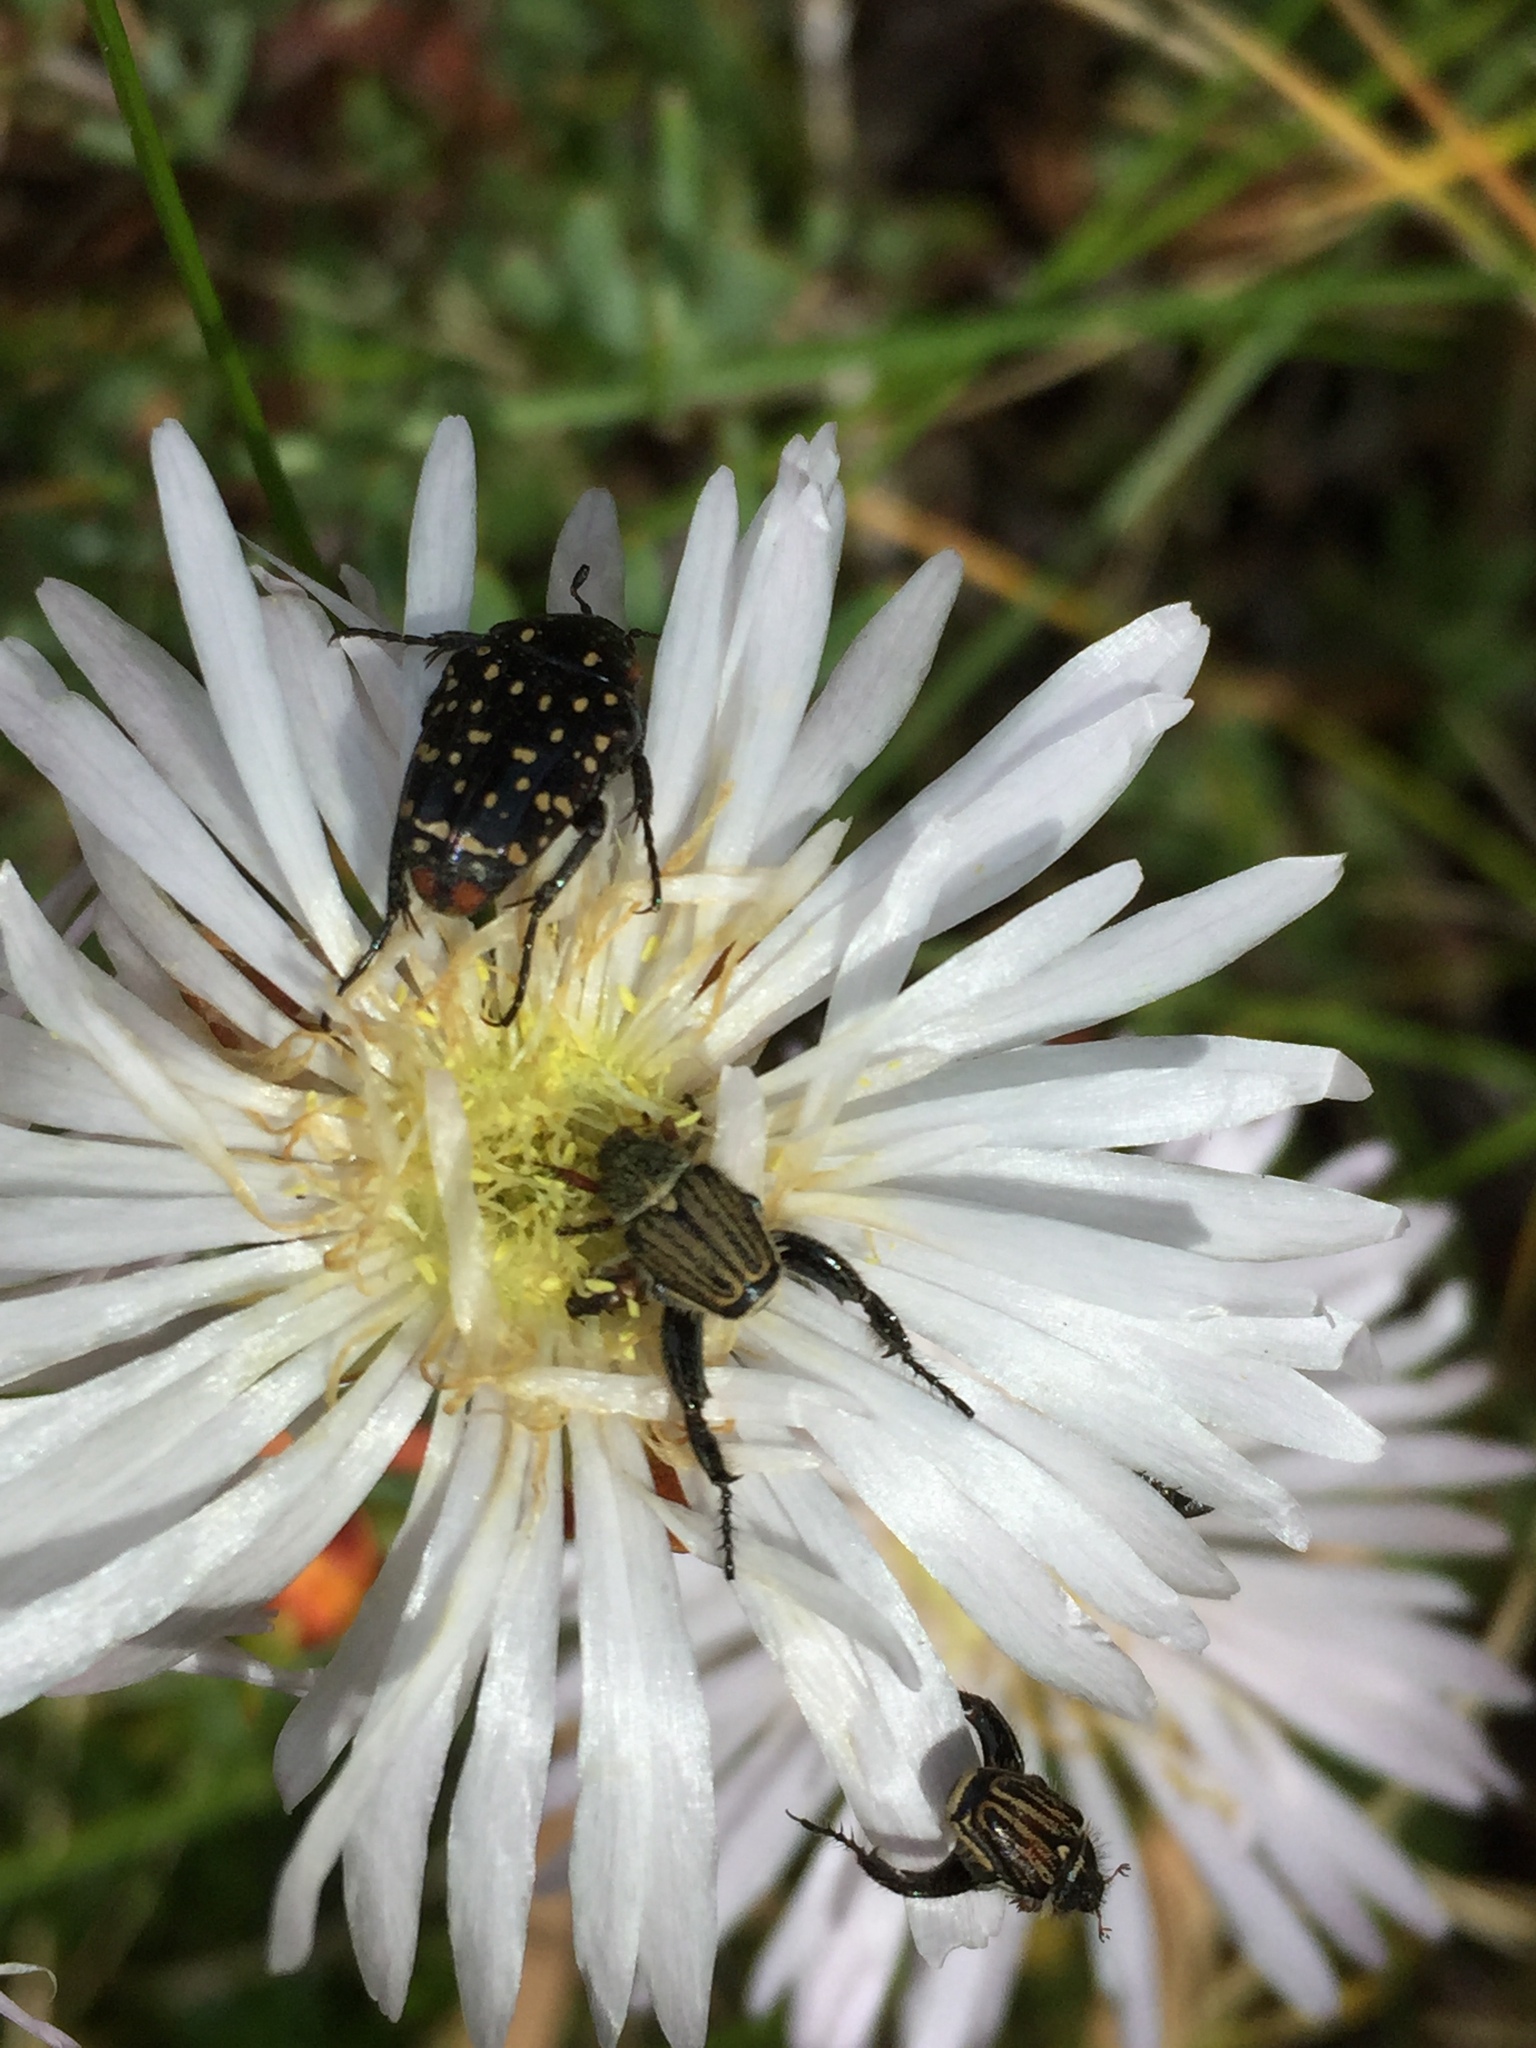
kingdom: Animalia
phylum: Arthropoda
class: Insecta
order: Coleoptera
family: Scarabaeidae
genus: Oxythyrea
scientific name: Oxythyrea
